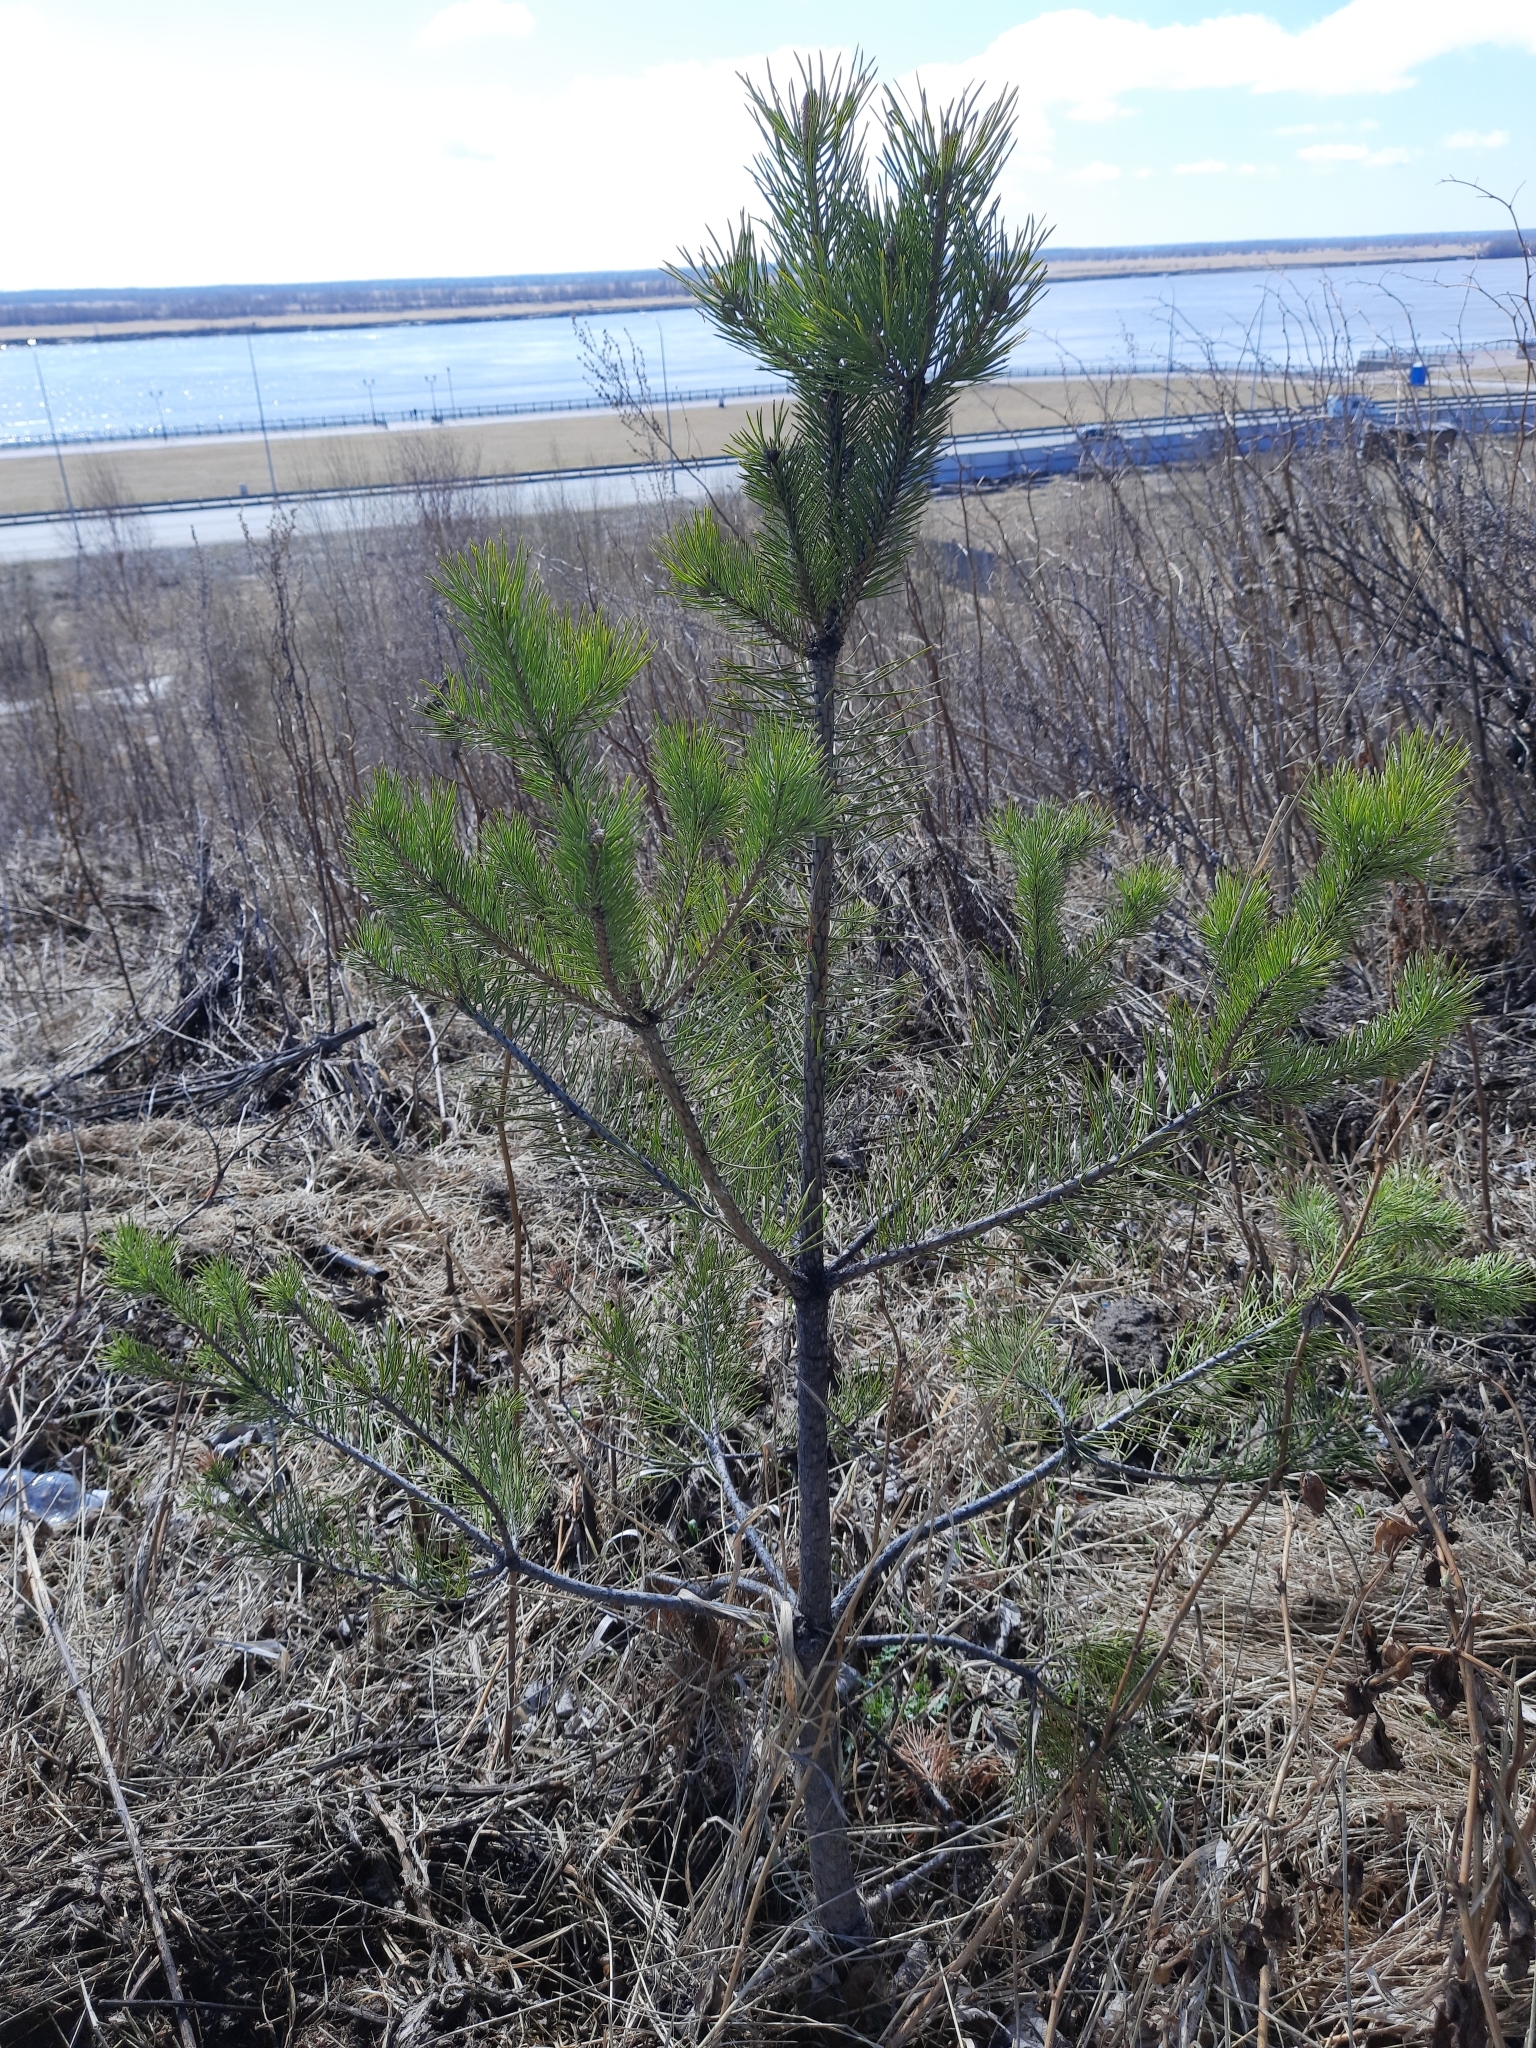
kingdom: Plantae
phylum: Tracheophyta
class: Pinopsida
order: Pinales
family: Pinaceae
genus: Pinus
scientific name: Pinus sylvestris
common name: Scots pine
